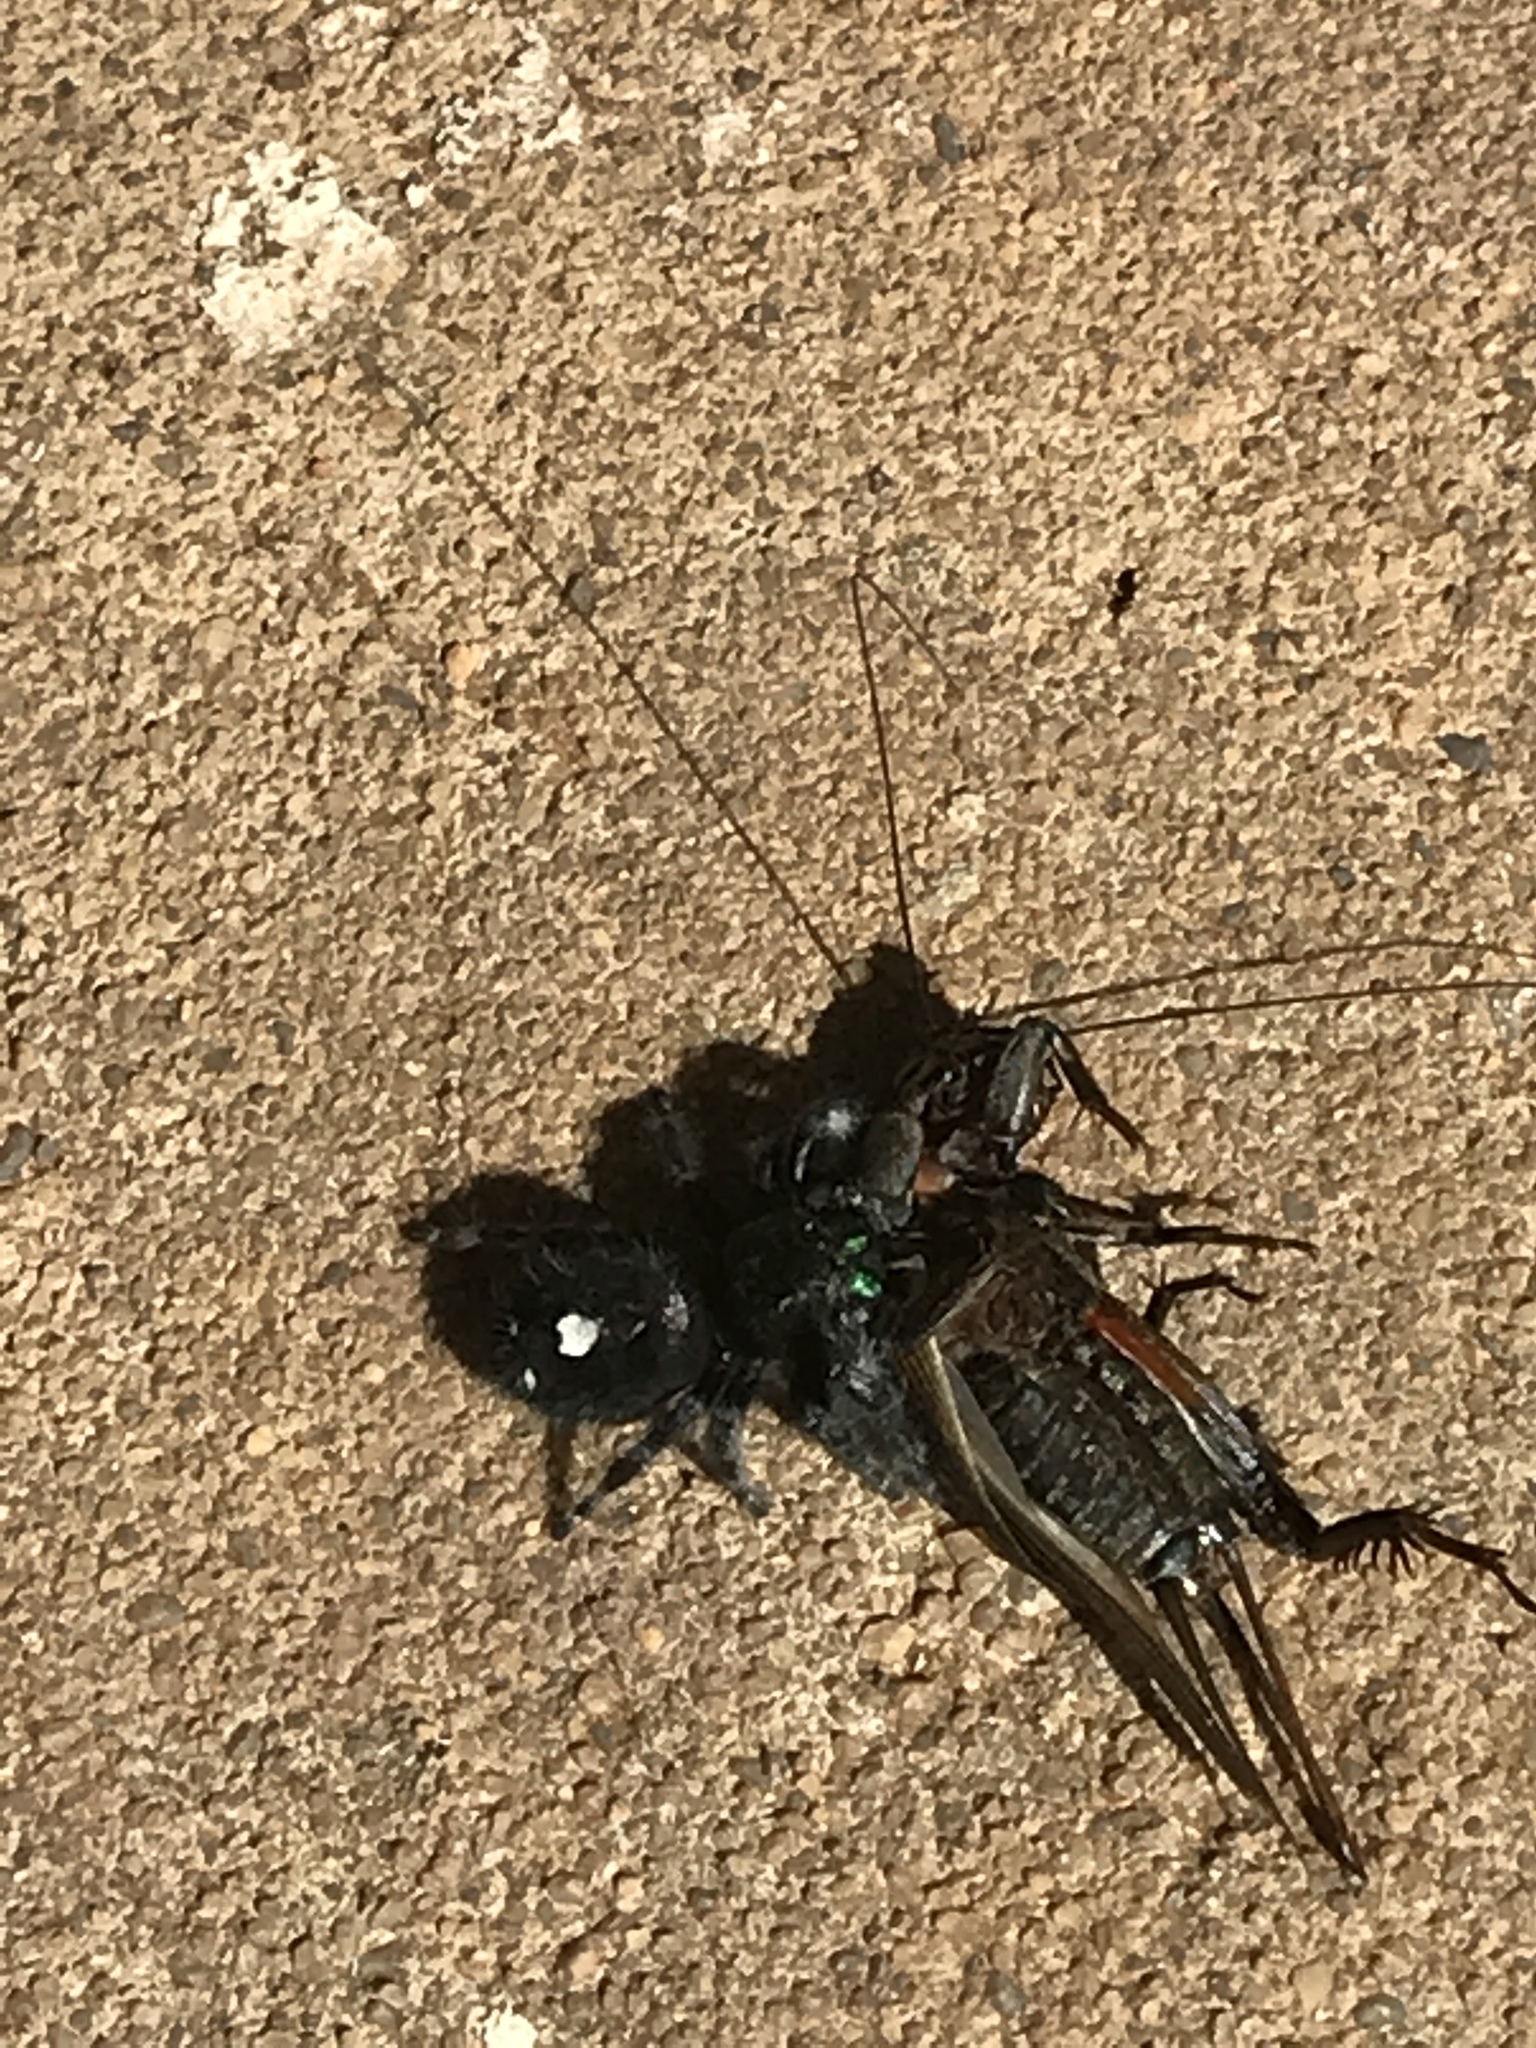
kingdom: Animalia
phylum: Arthropoda
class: Arachnida
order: Araneae
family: Salticidae
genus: Phidippus
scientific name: Phidippus audax
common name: Bold jumper
